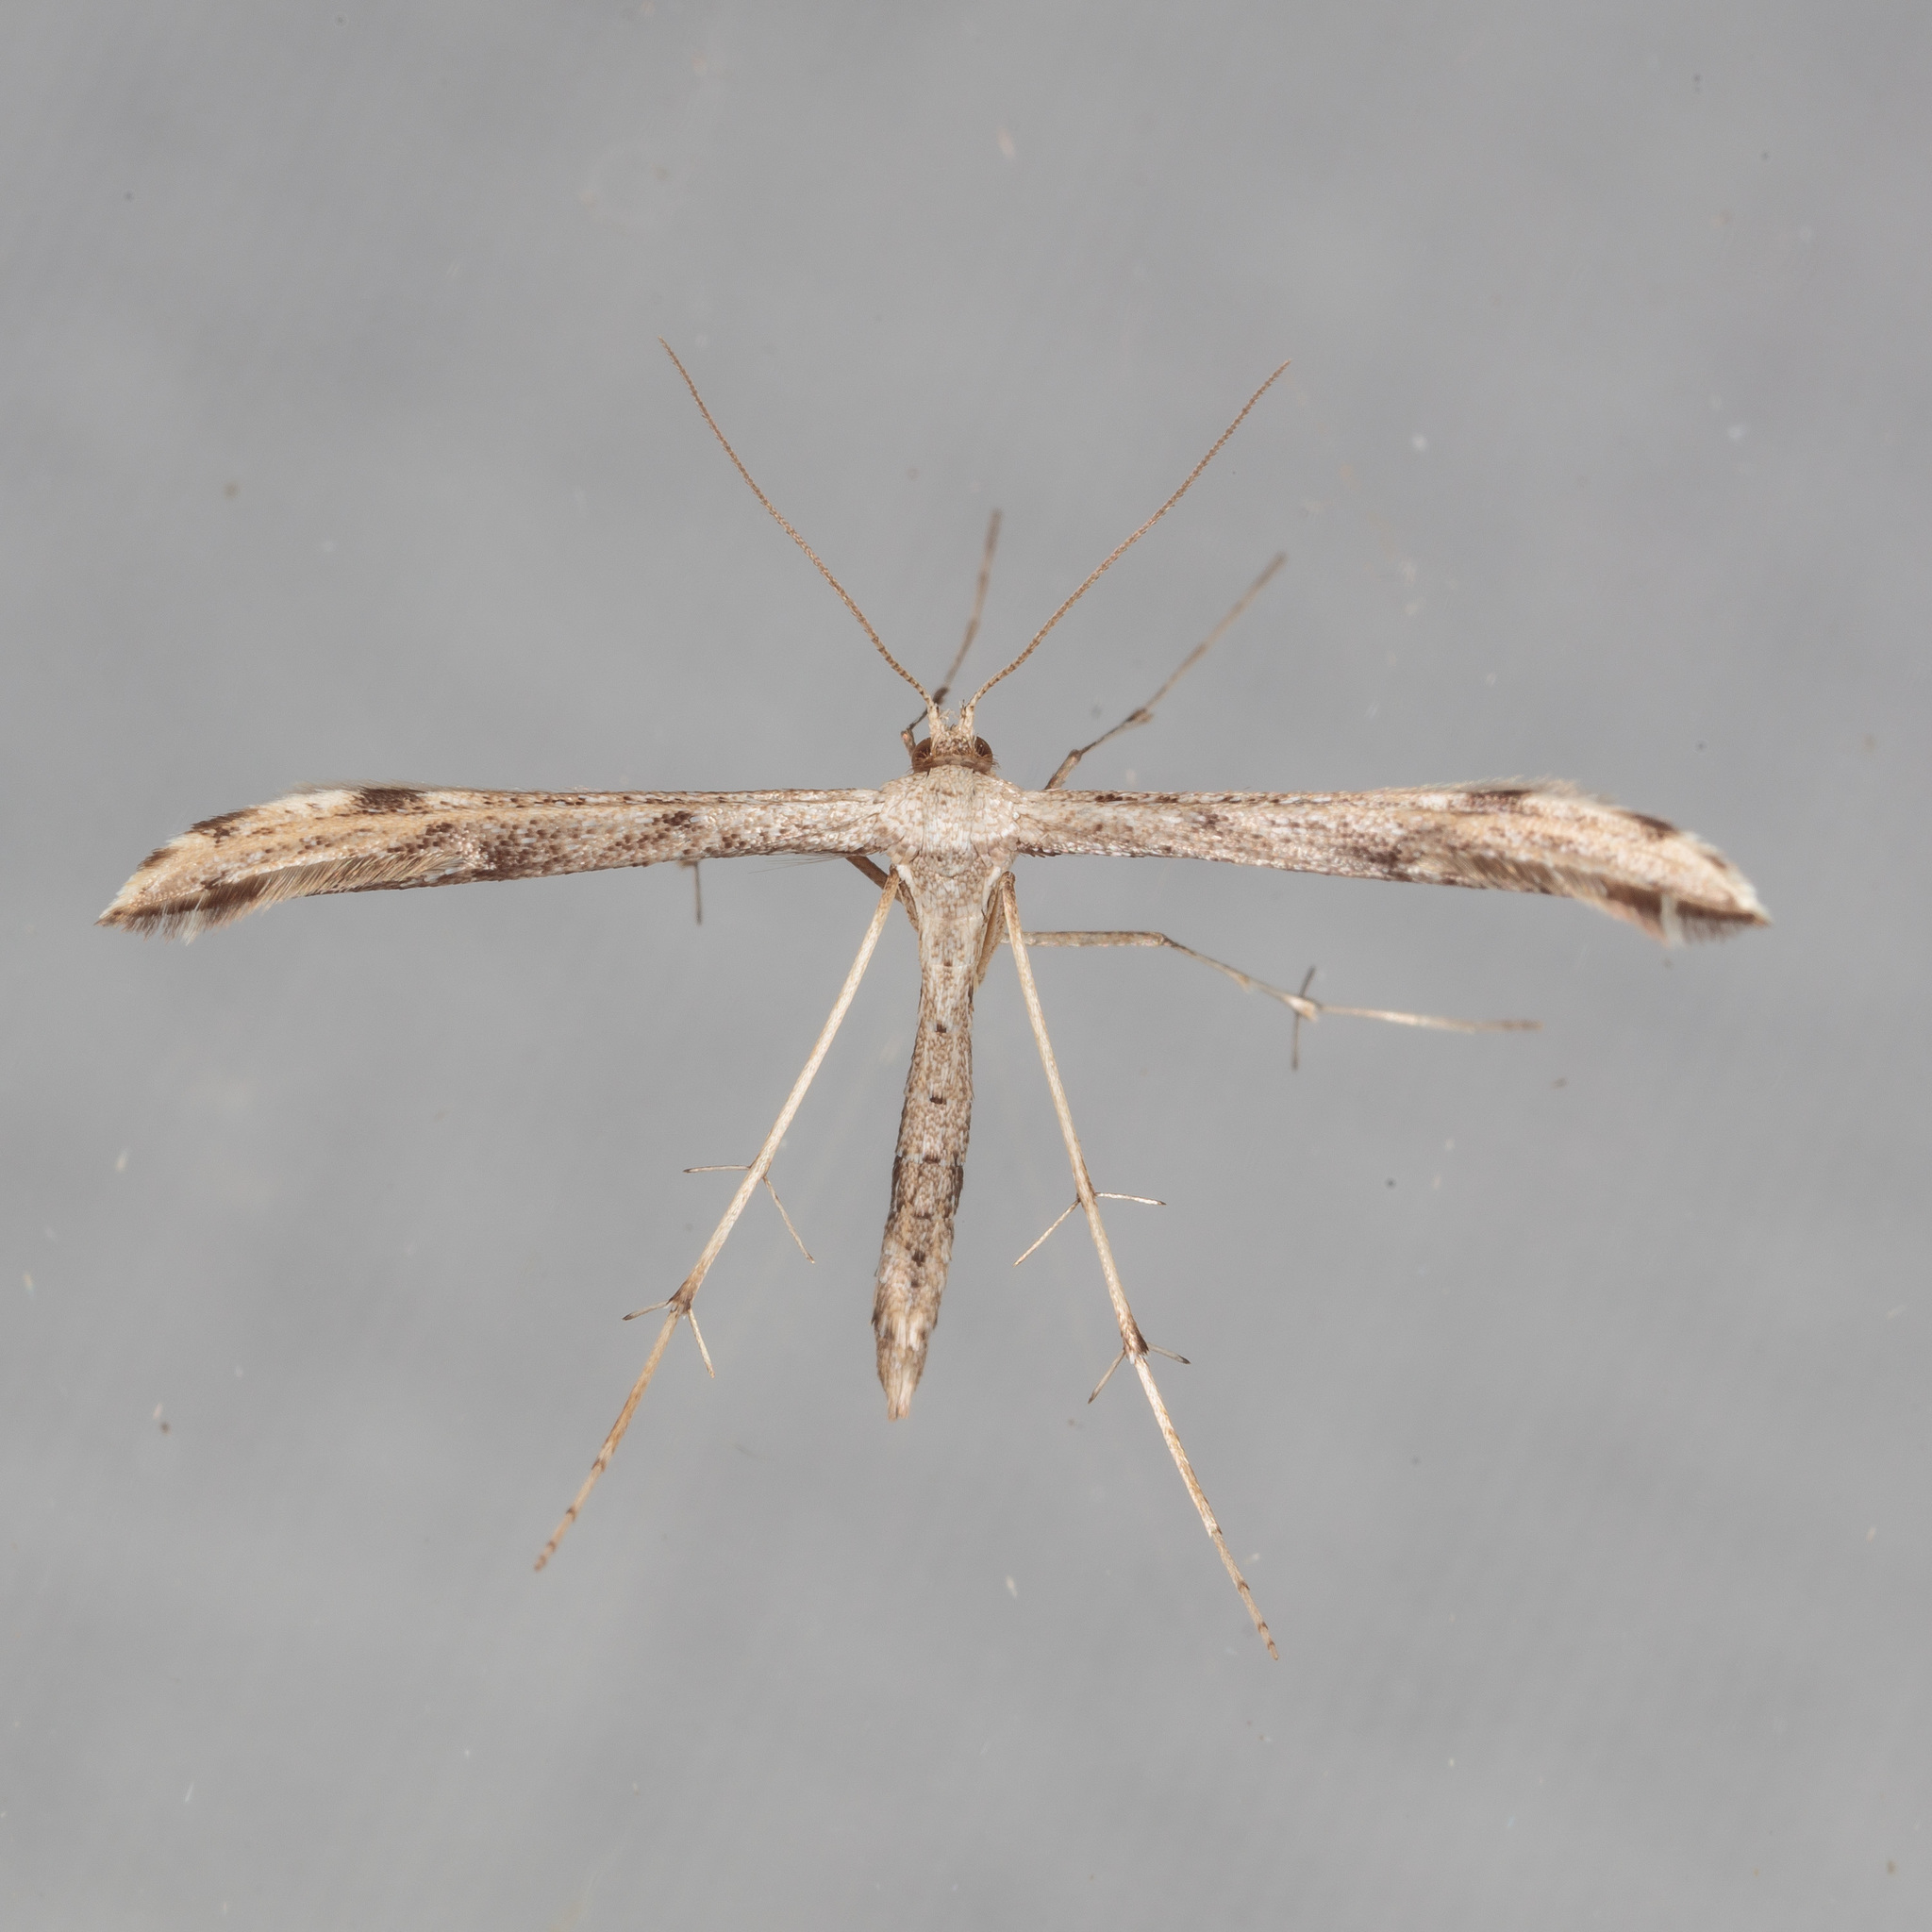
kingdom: Animalia
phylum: Arthropoda
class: Insecta
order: Lepidoptera
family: Pterophoridae
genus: Adaina
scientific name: Adaina ambrosiae
